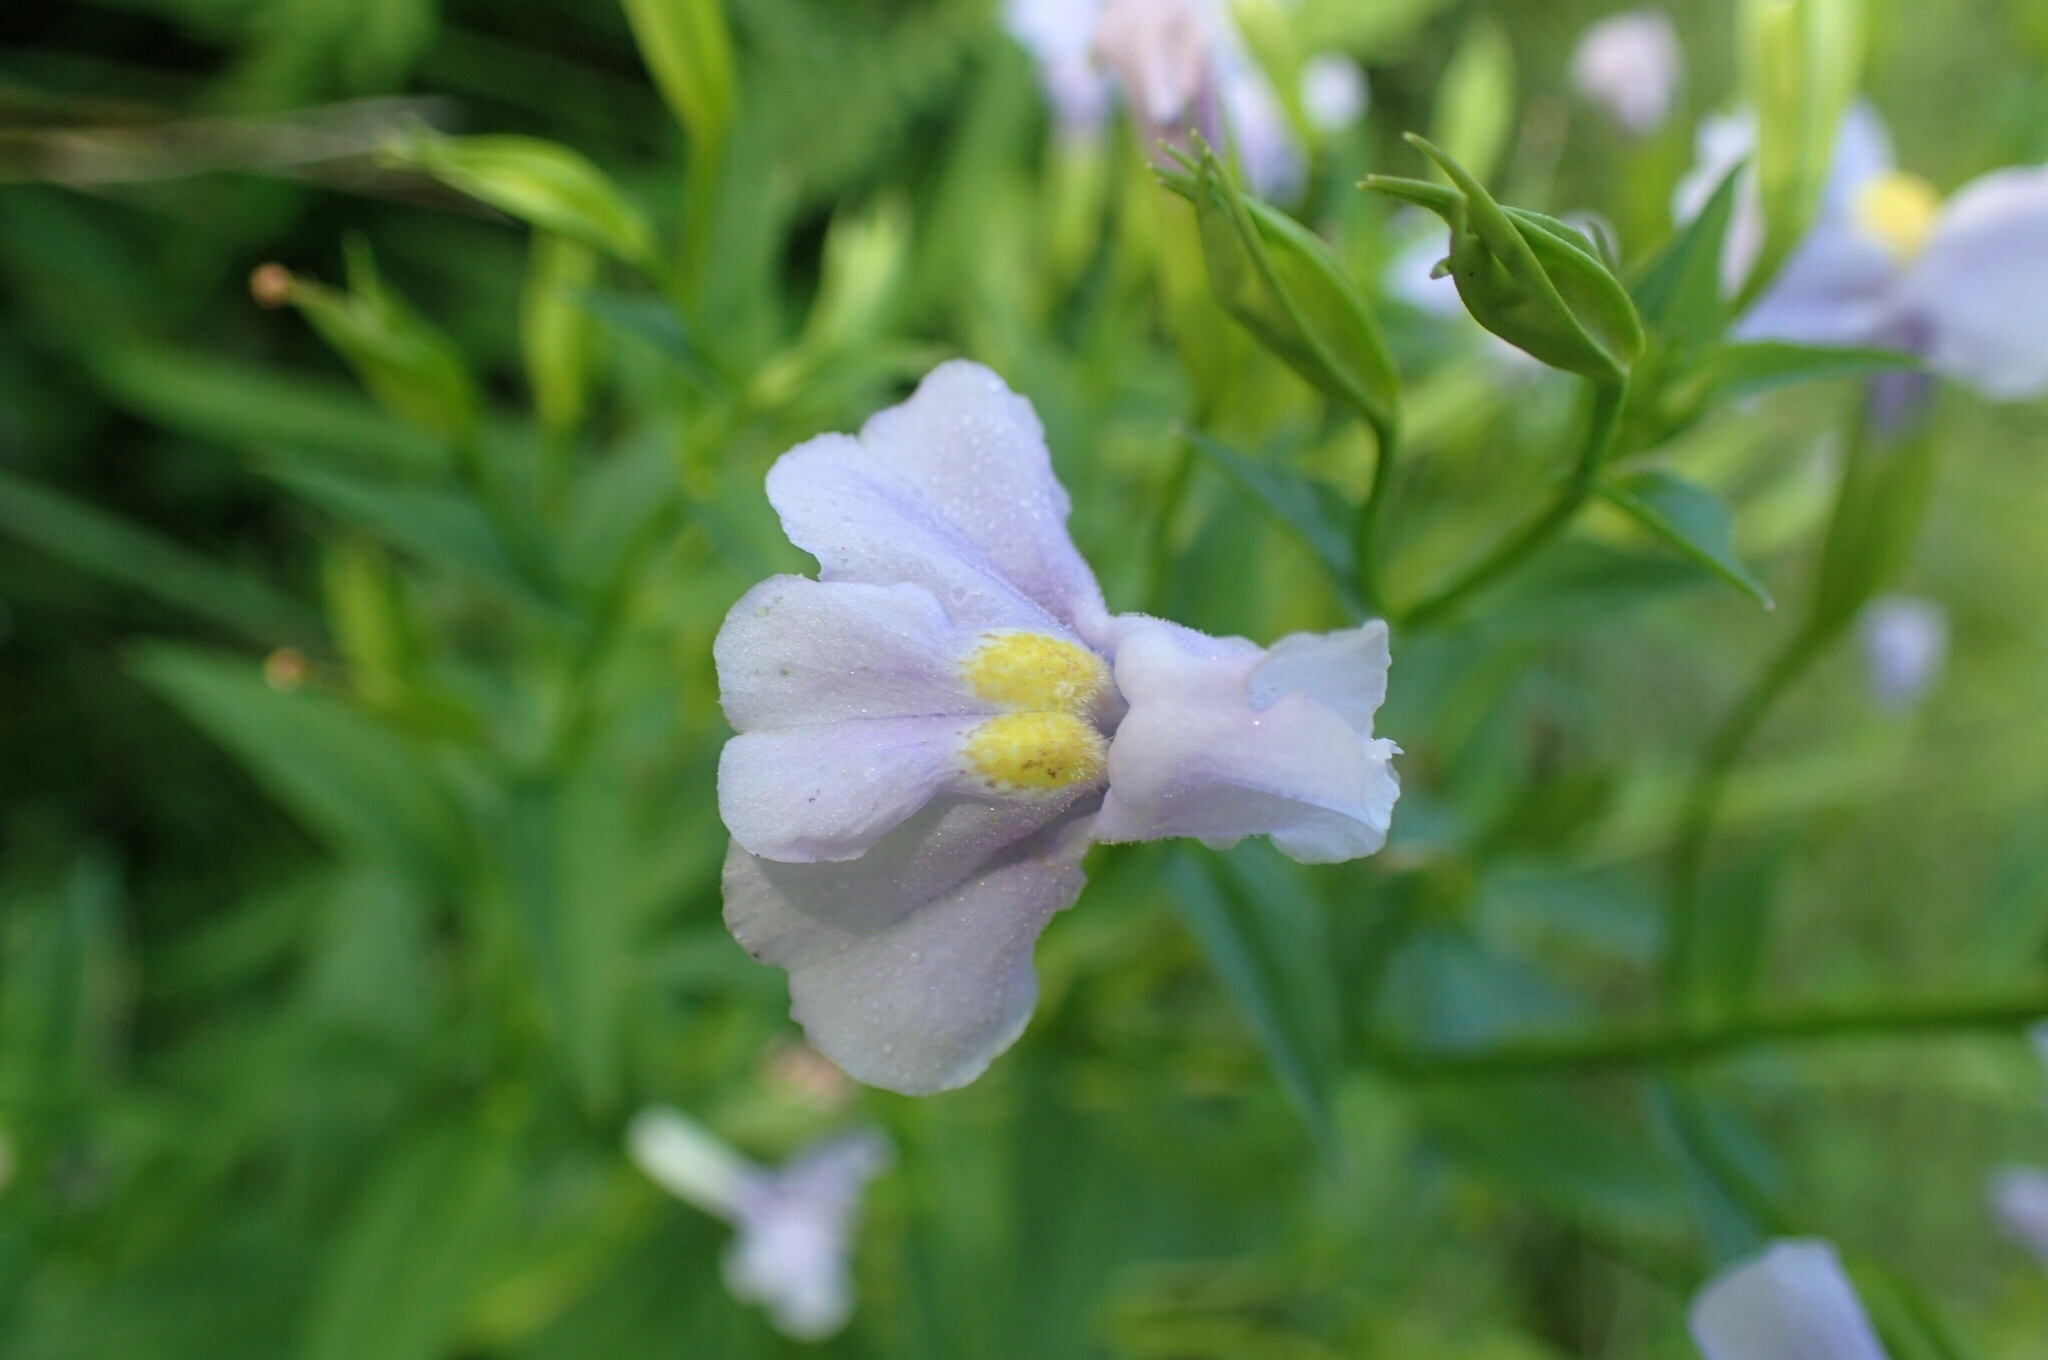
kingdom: Plantae
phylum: Tracheophyta
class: Magnoliopsida
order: Lamiales
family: Phrymaceae
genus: Mimulus
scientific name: Mimulus ringens
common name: Allegheny monkeyflower
